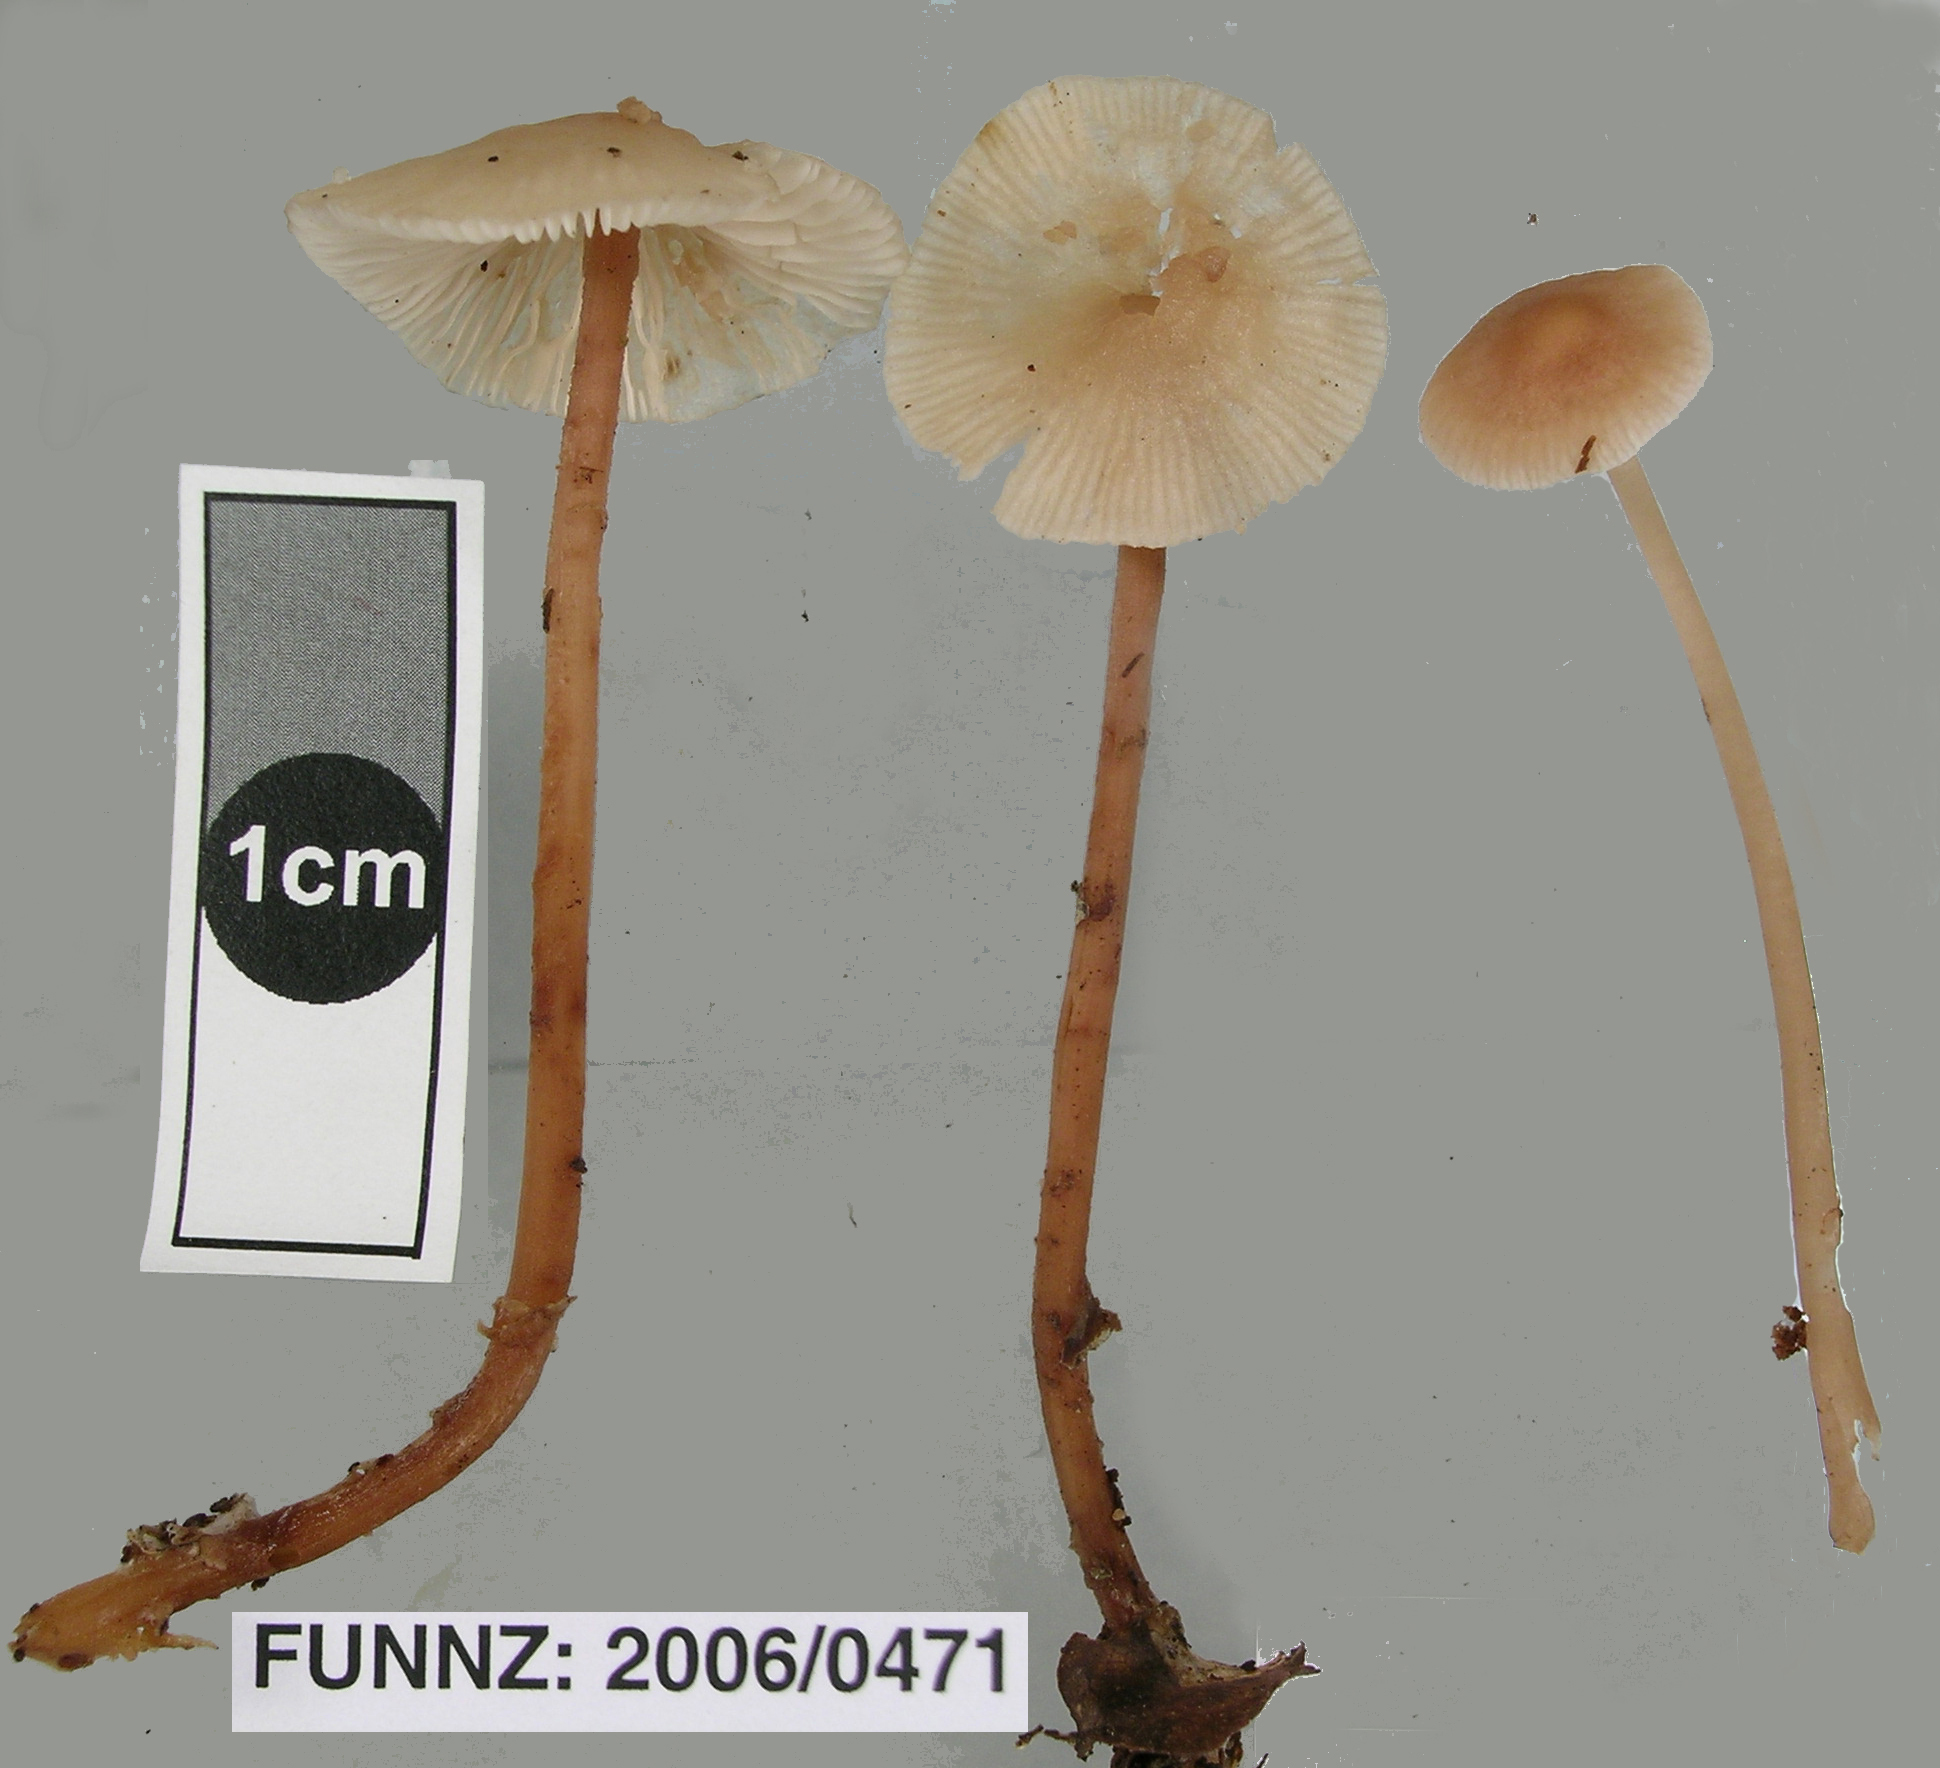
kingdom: Fungi
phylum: Basidiomycota
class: Agaricomycetes
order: Agaricales
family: Omphalotaceae
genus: Collybiopsis
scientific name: Collybiopsis rimutaka
